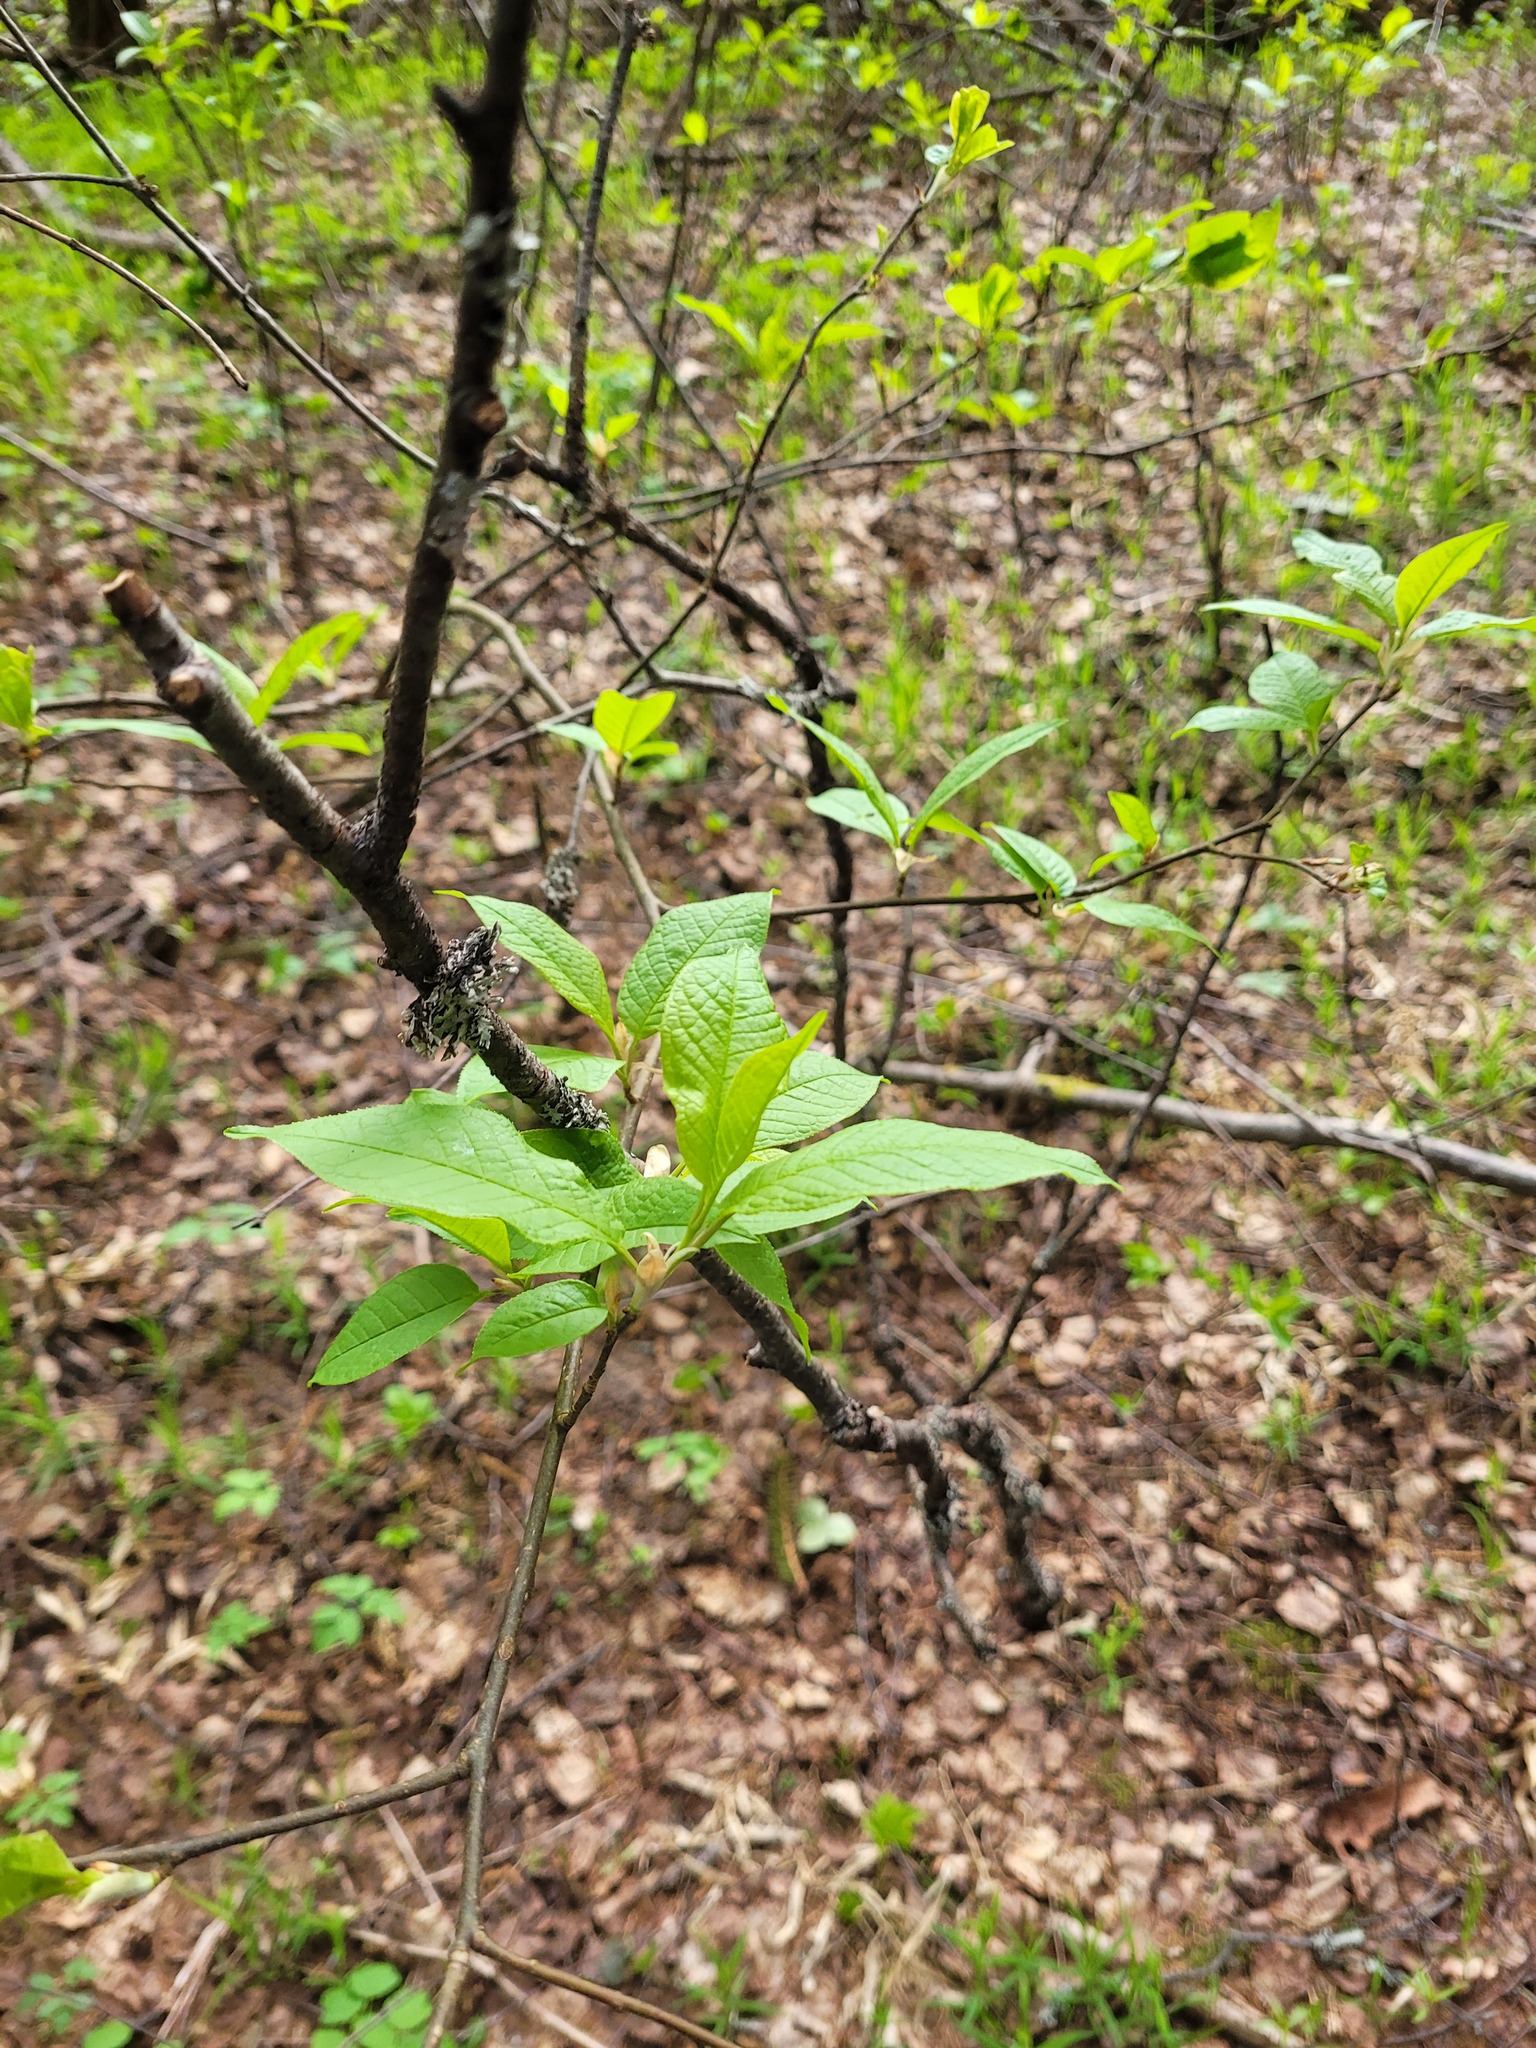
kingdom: Plantae
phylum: Tracheophyta
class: Magnoliopsida
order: Rosales
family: Rosaceae
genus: Prunus
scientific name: Prunus padus
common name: Bird cherry
